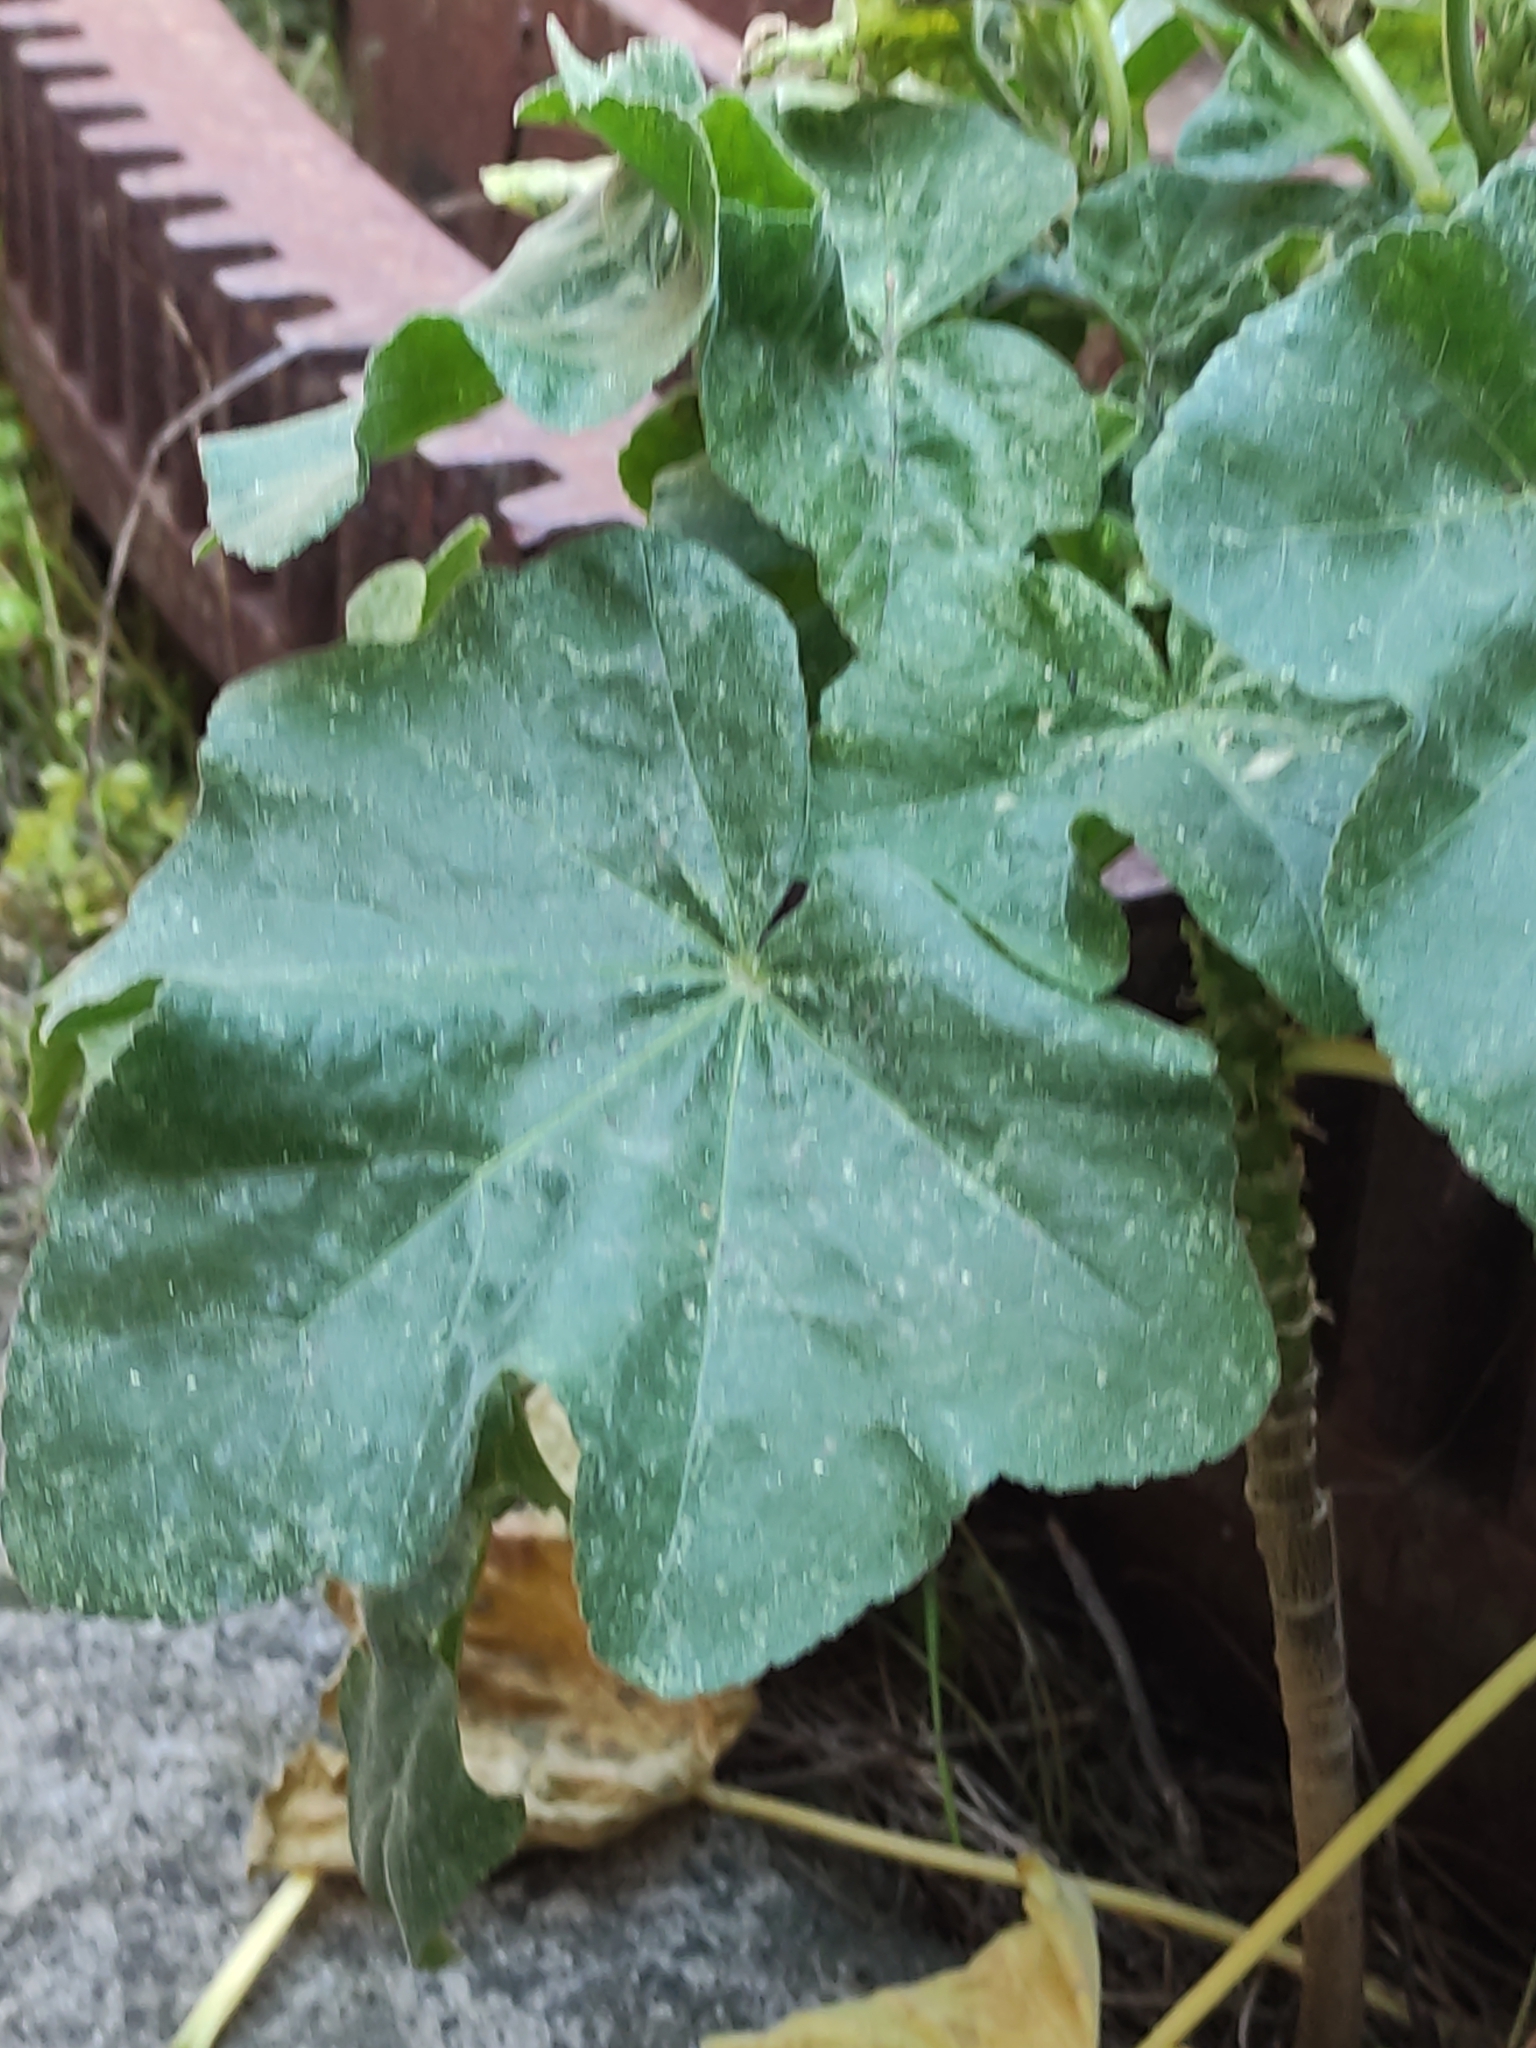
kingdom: Plantae
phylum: Tracheophyta
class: Magnoliopsida
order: Malvales
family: Malvaceae
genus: Malva
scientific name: Malva arborea
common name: Tree mallow
